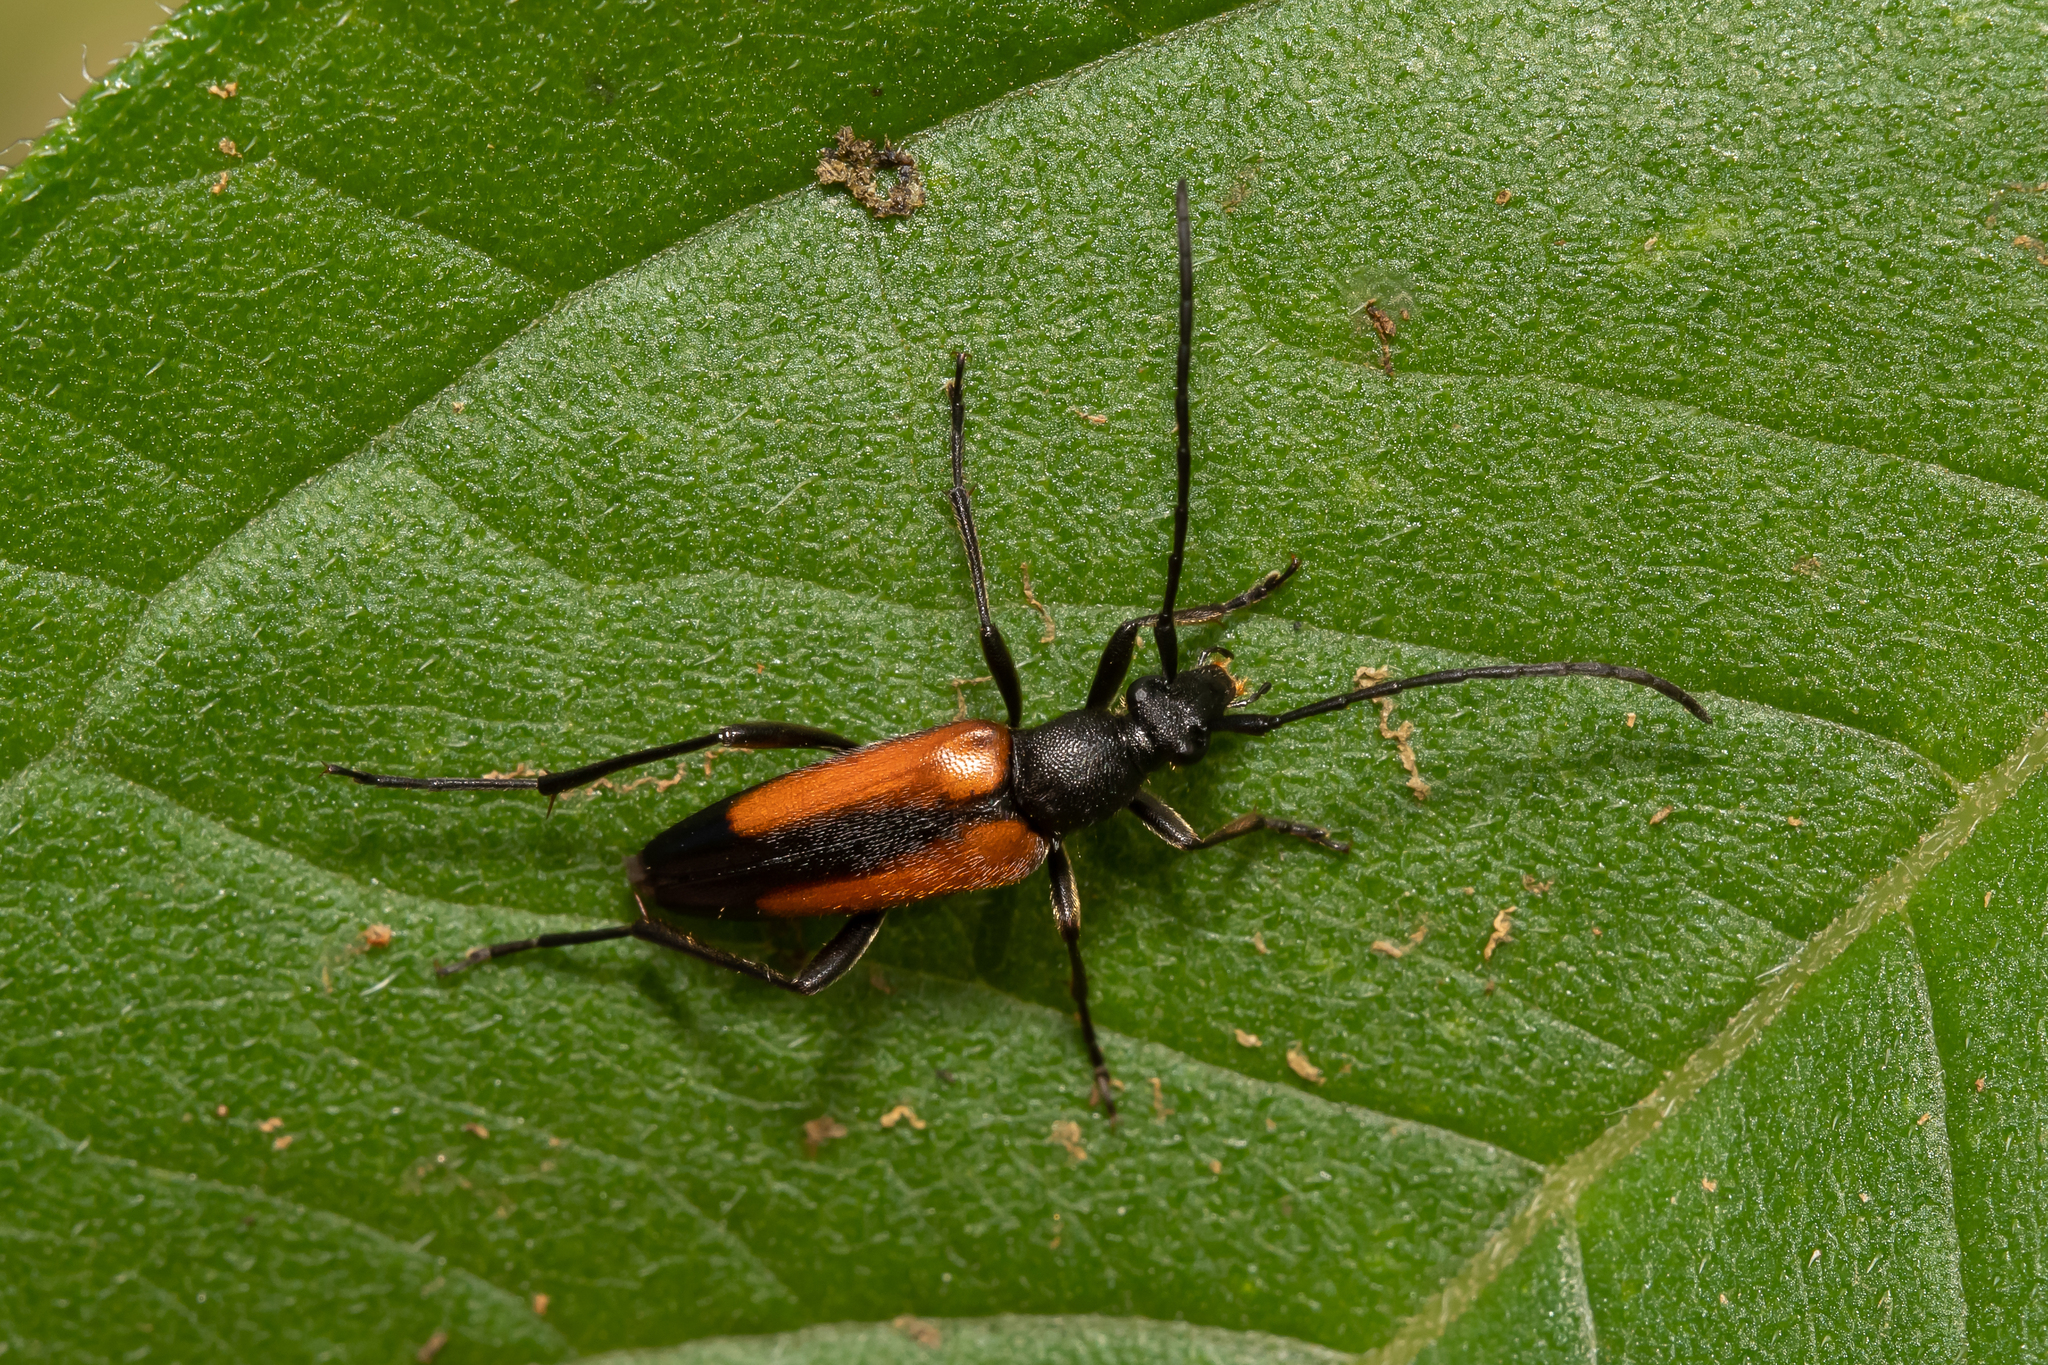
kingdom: Animalia
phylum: Arthropoda
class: Insecta
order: Coleoptera
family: Cerambycidae
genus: Stenurella
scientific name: Stenurella melanura
